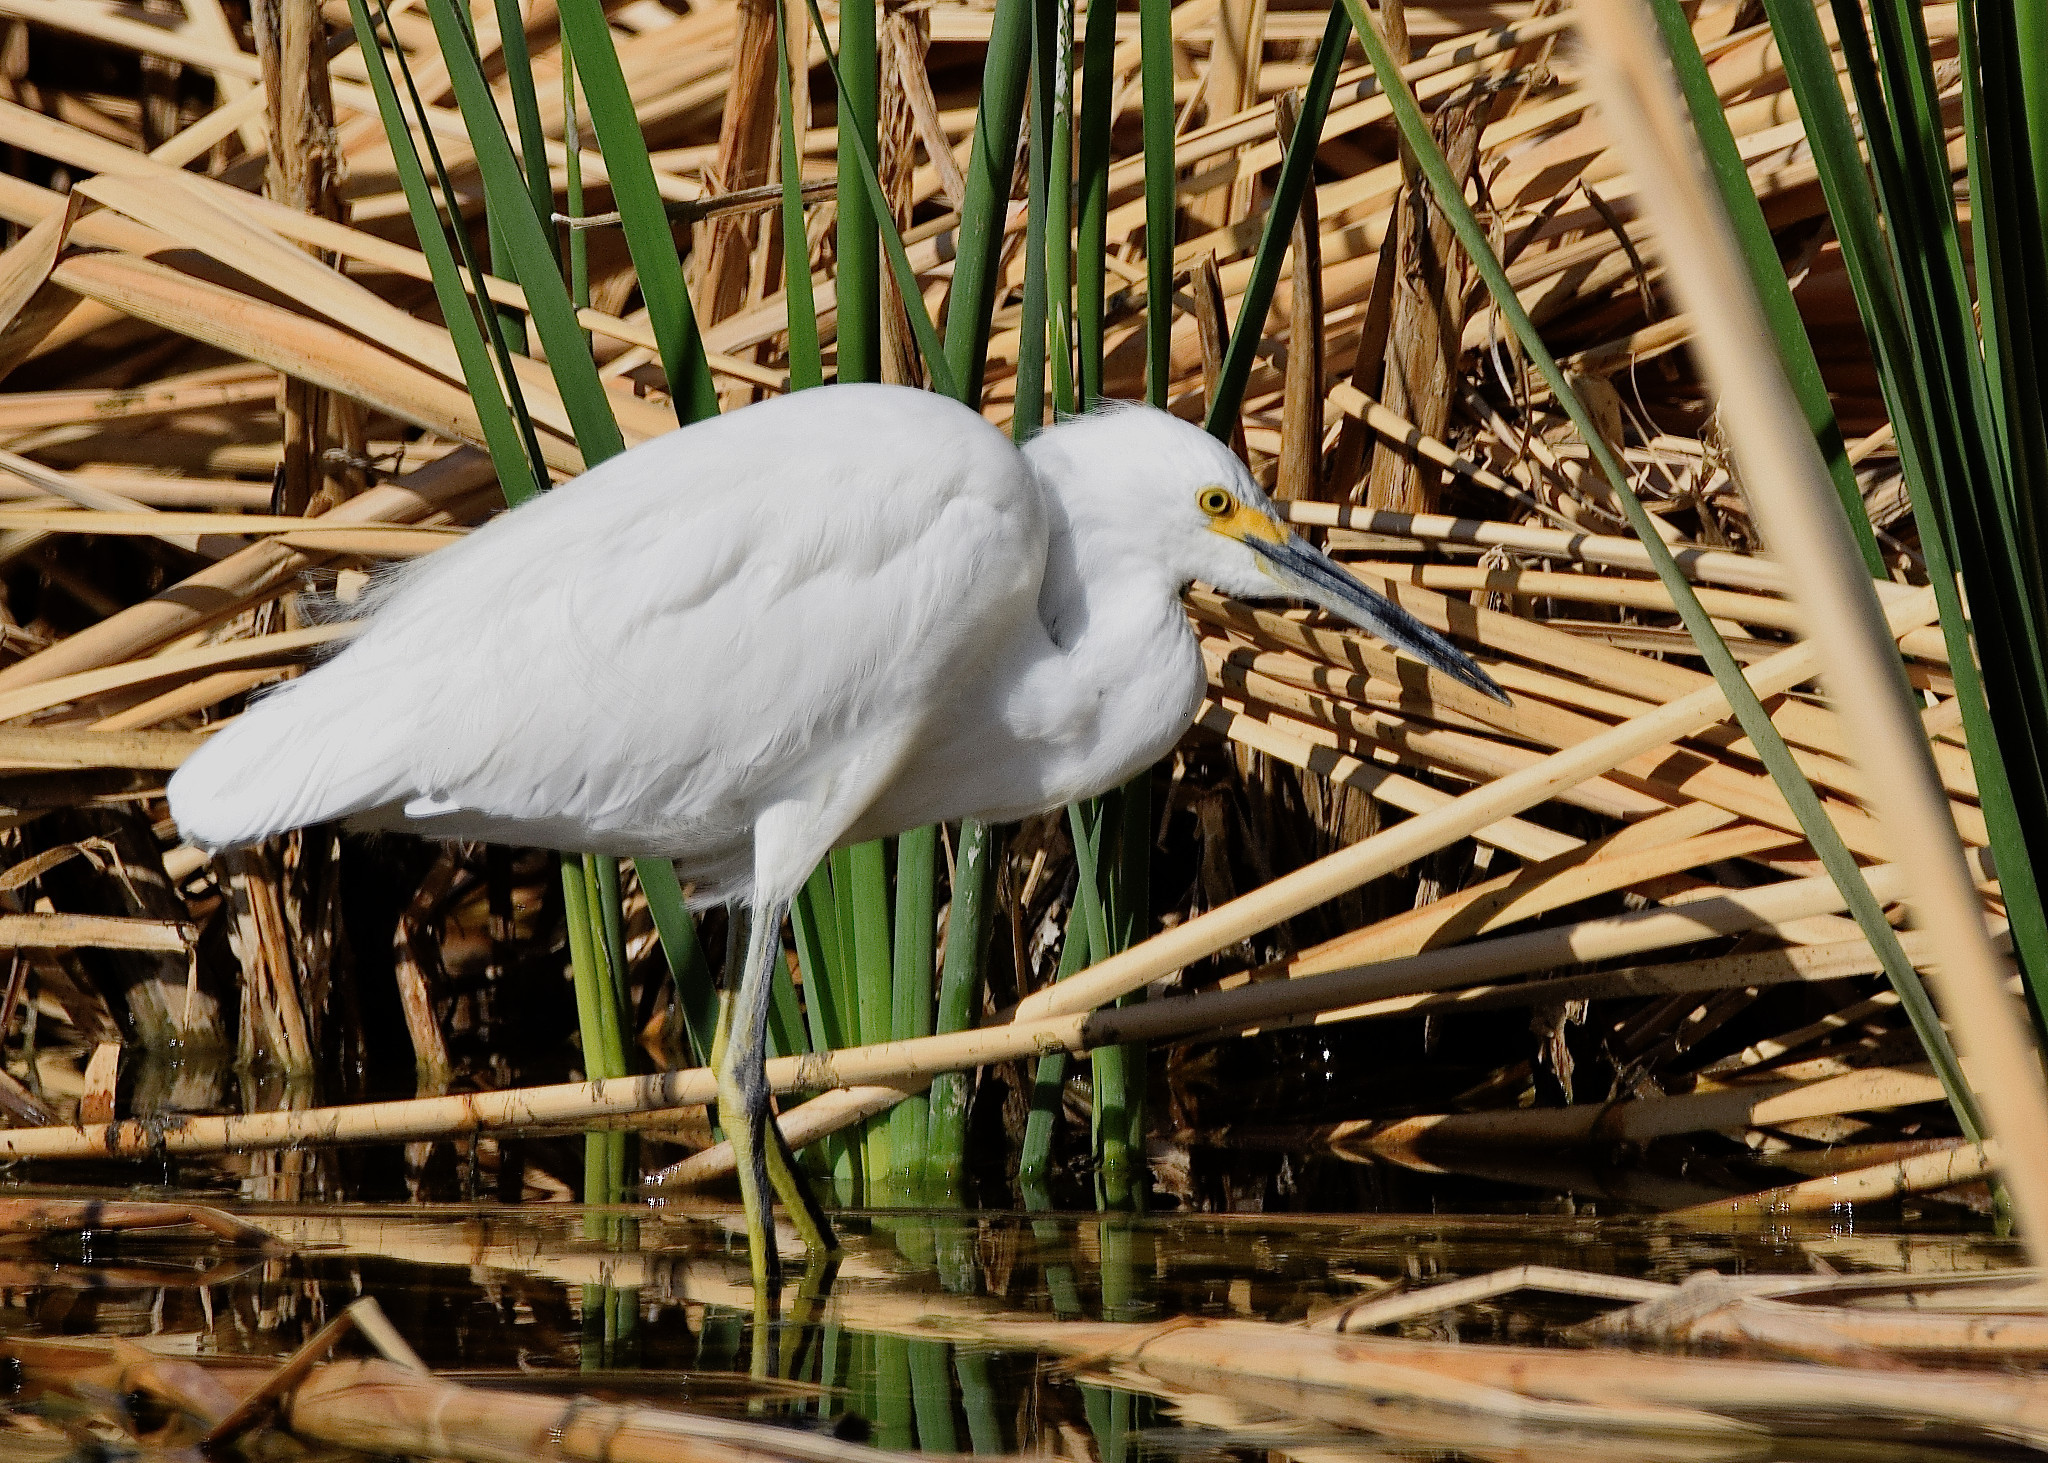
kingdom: Animalia
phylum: Chordata
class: Aves
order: Pelecaniformes
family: Ardeidae
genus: Egretta
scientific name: Egretta thula
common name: Snowy egret
